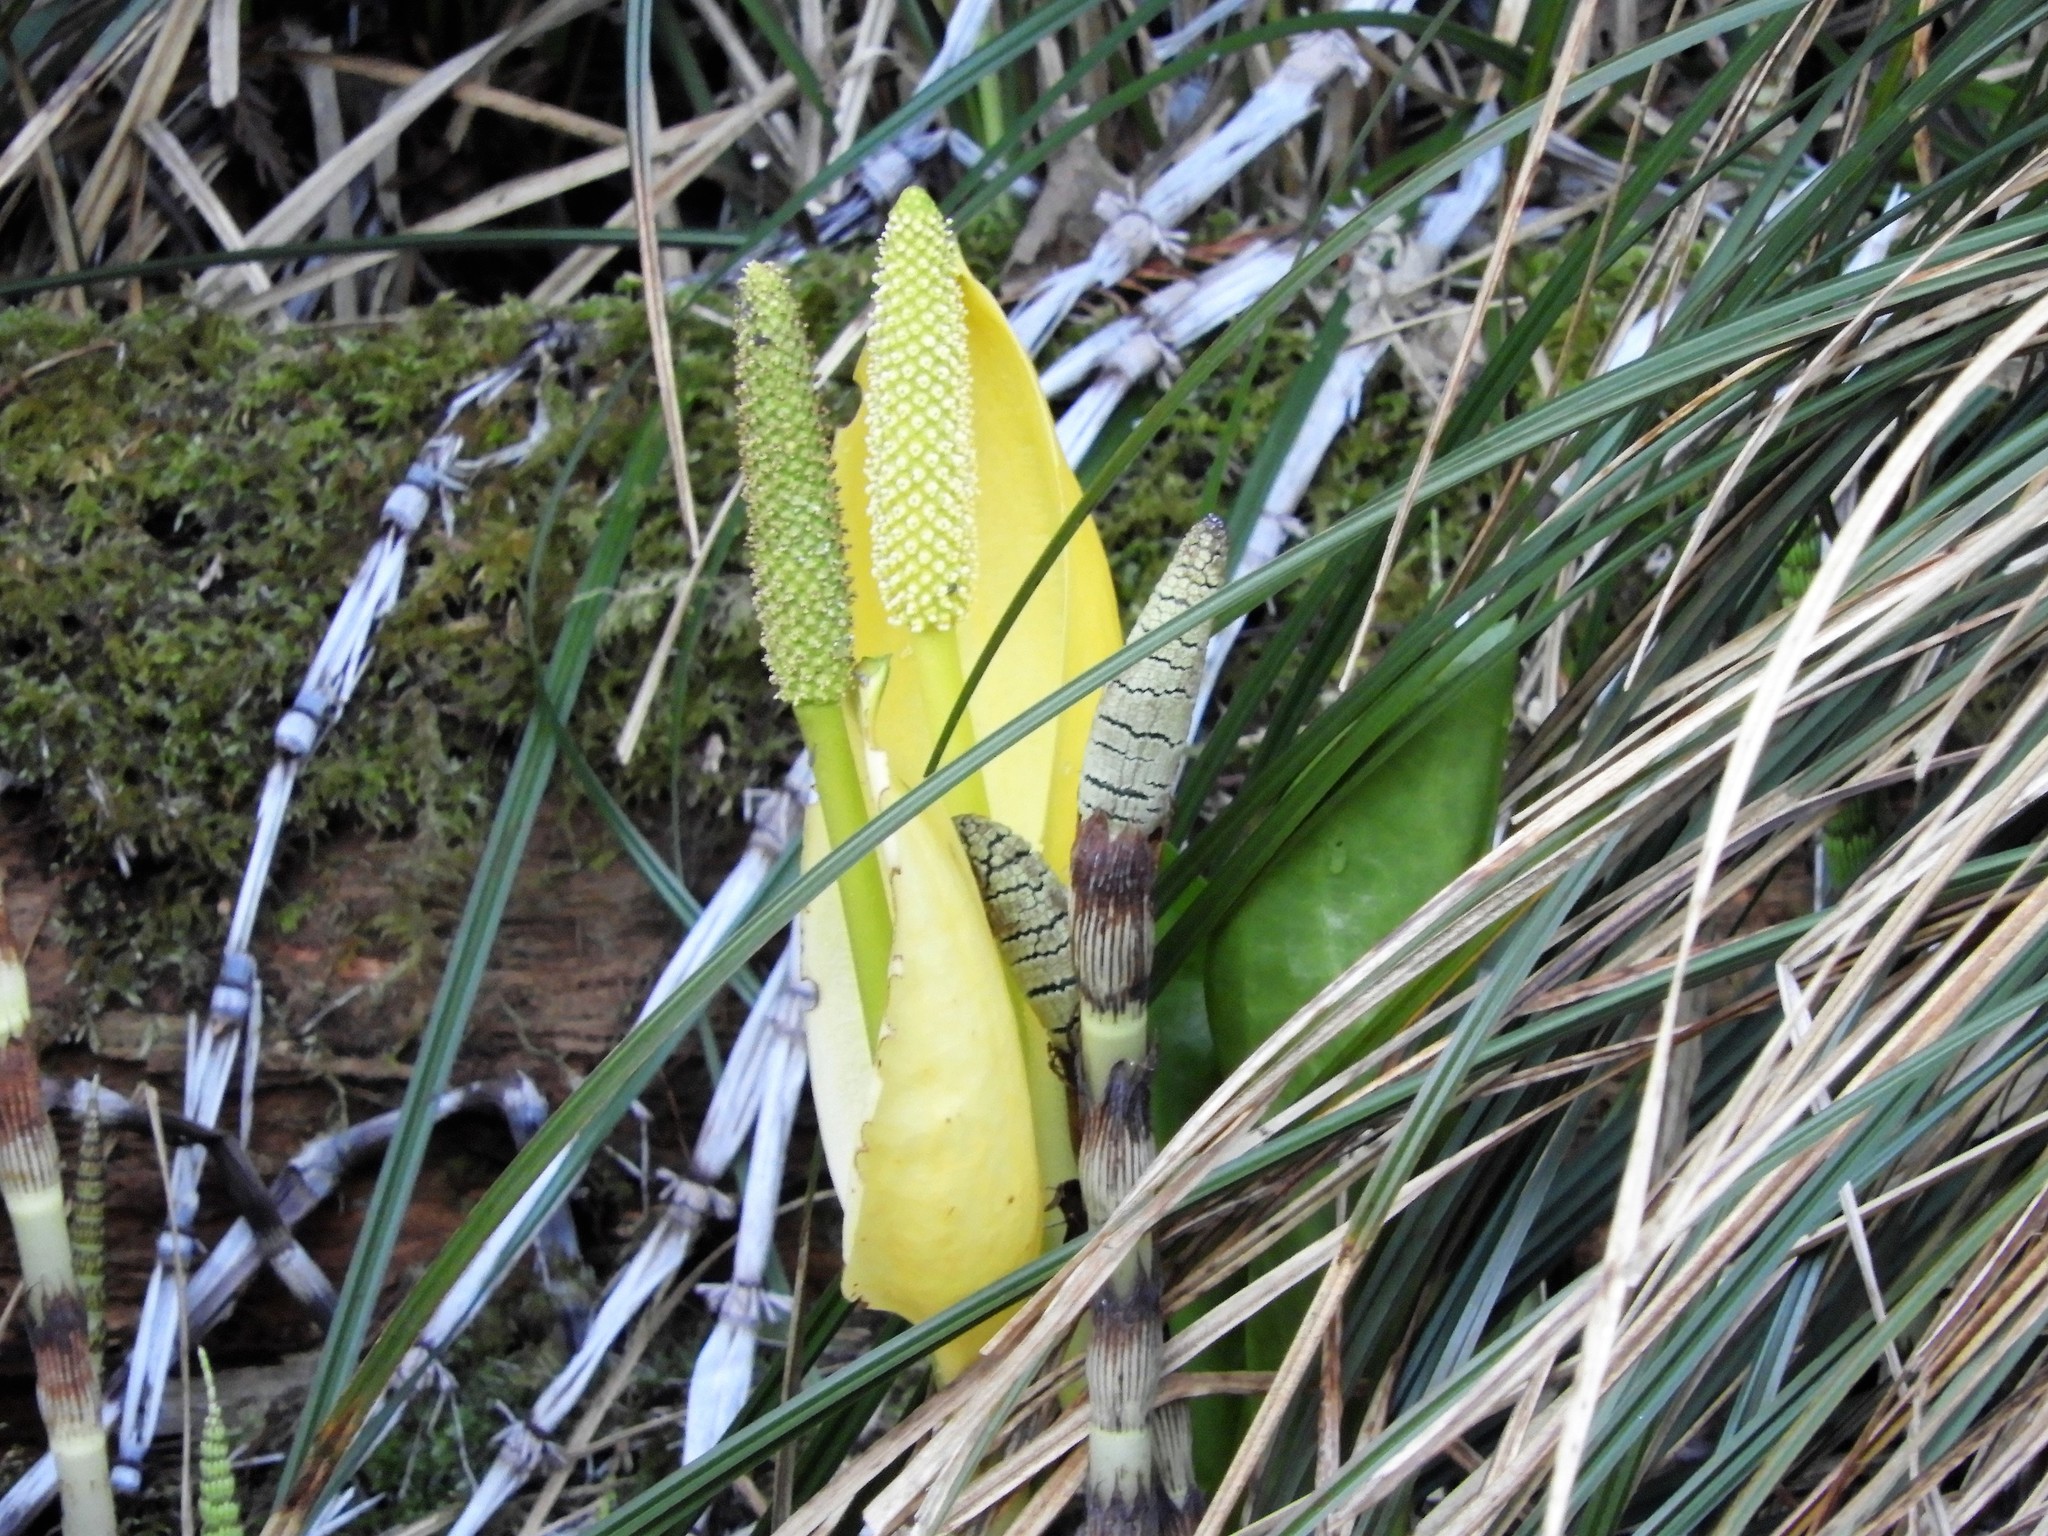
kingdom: Plantae
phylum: Tracheophyta
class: Liliopsida
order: Alismatales
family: Araceae
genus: Lysichiton
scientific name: Lysichiton americanus
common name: American skunk cabbage
